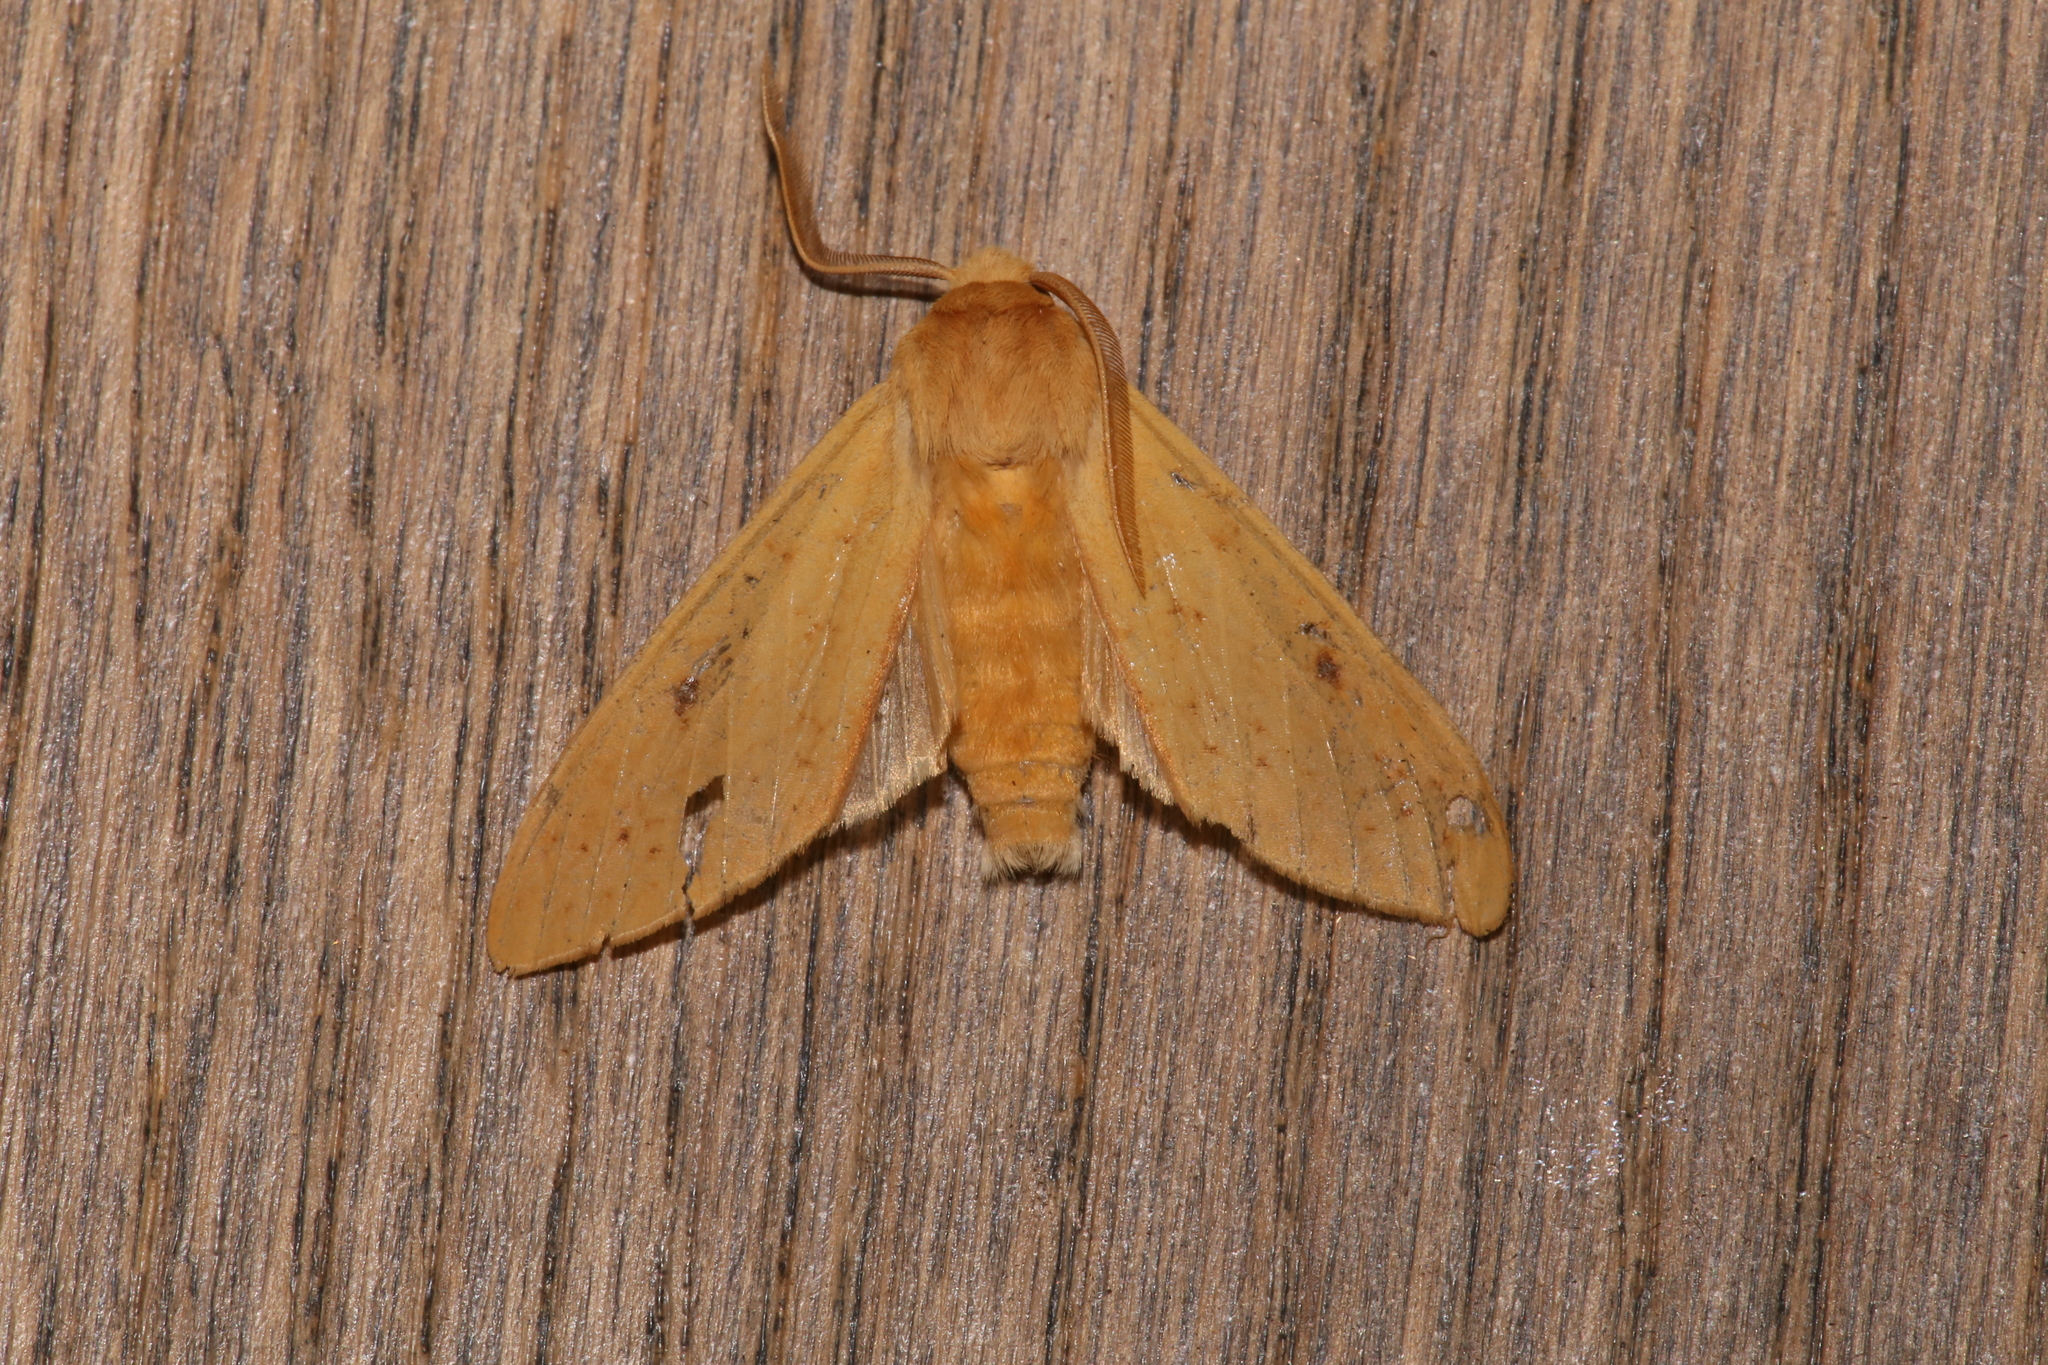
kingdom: Animalia
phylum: Arthropoda
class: Insecta
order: Lepidoptera
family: Erebidae
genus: Lophocampa
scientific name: Lophocampa pura
